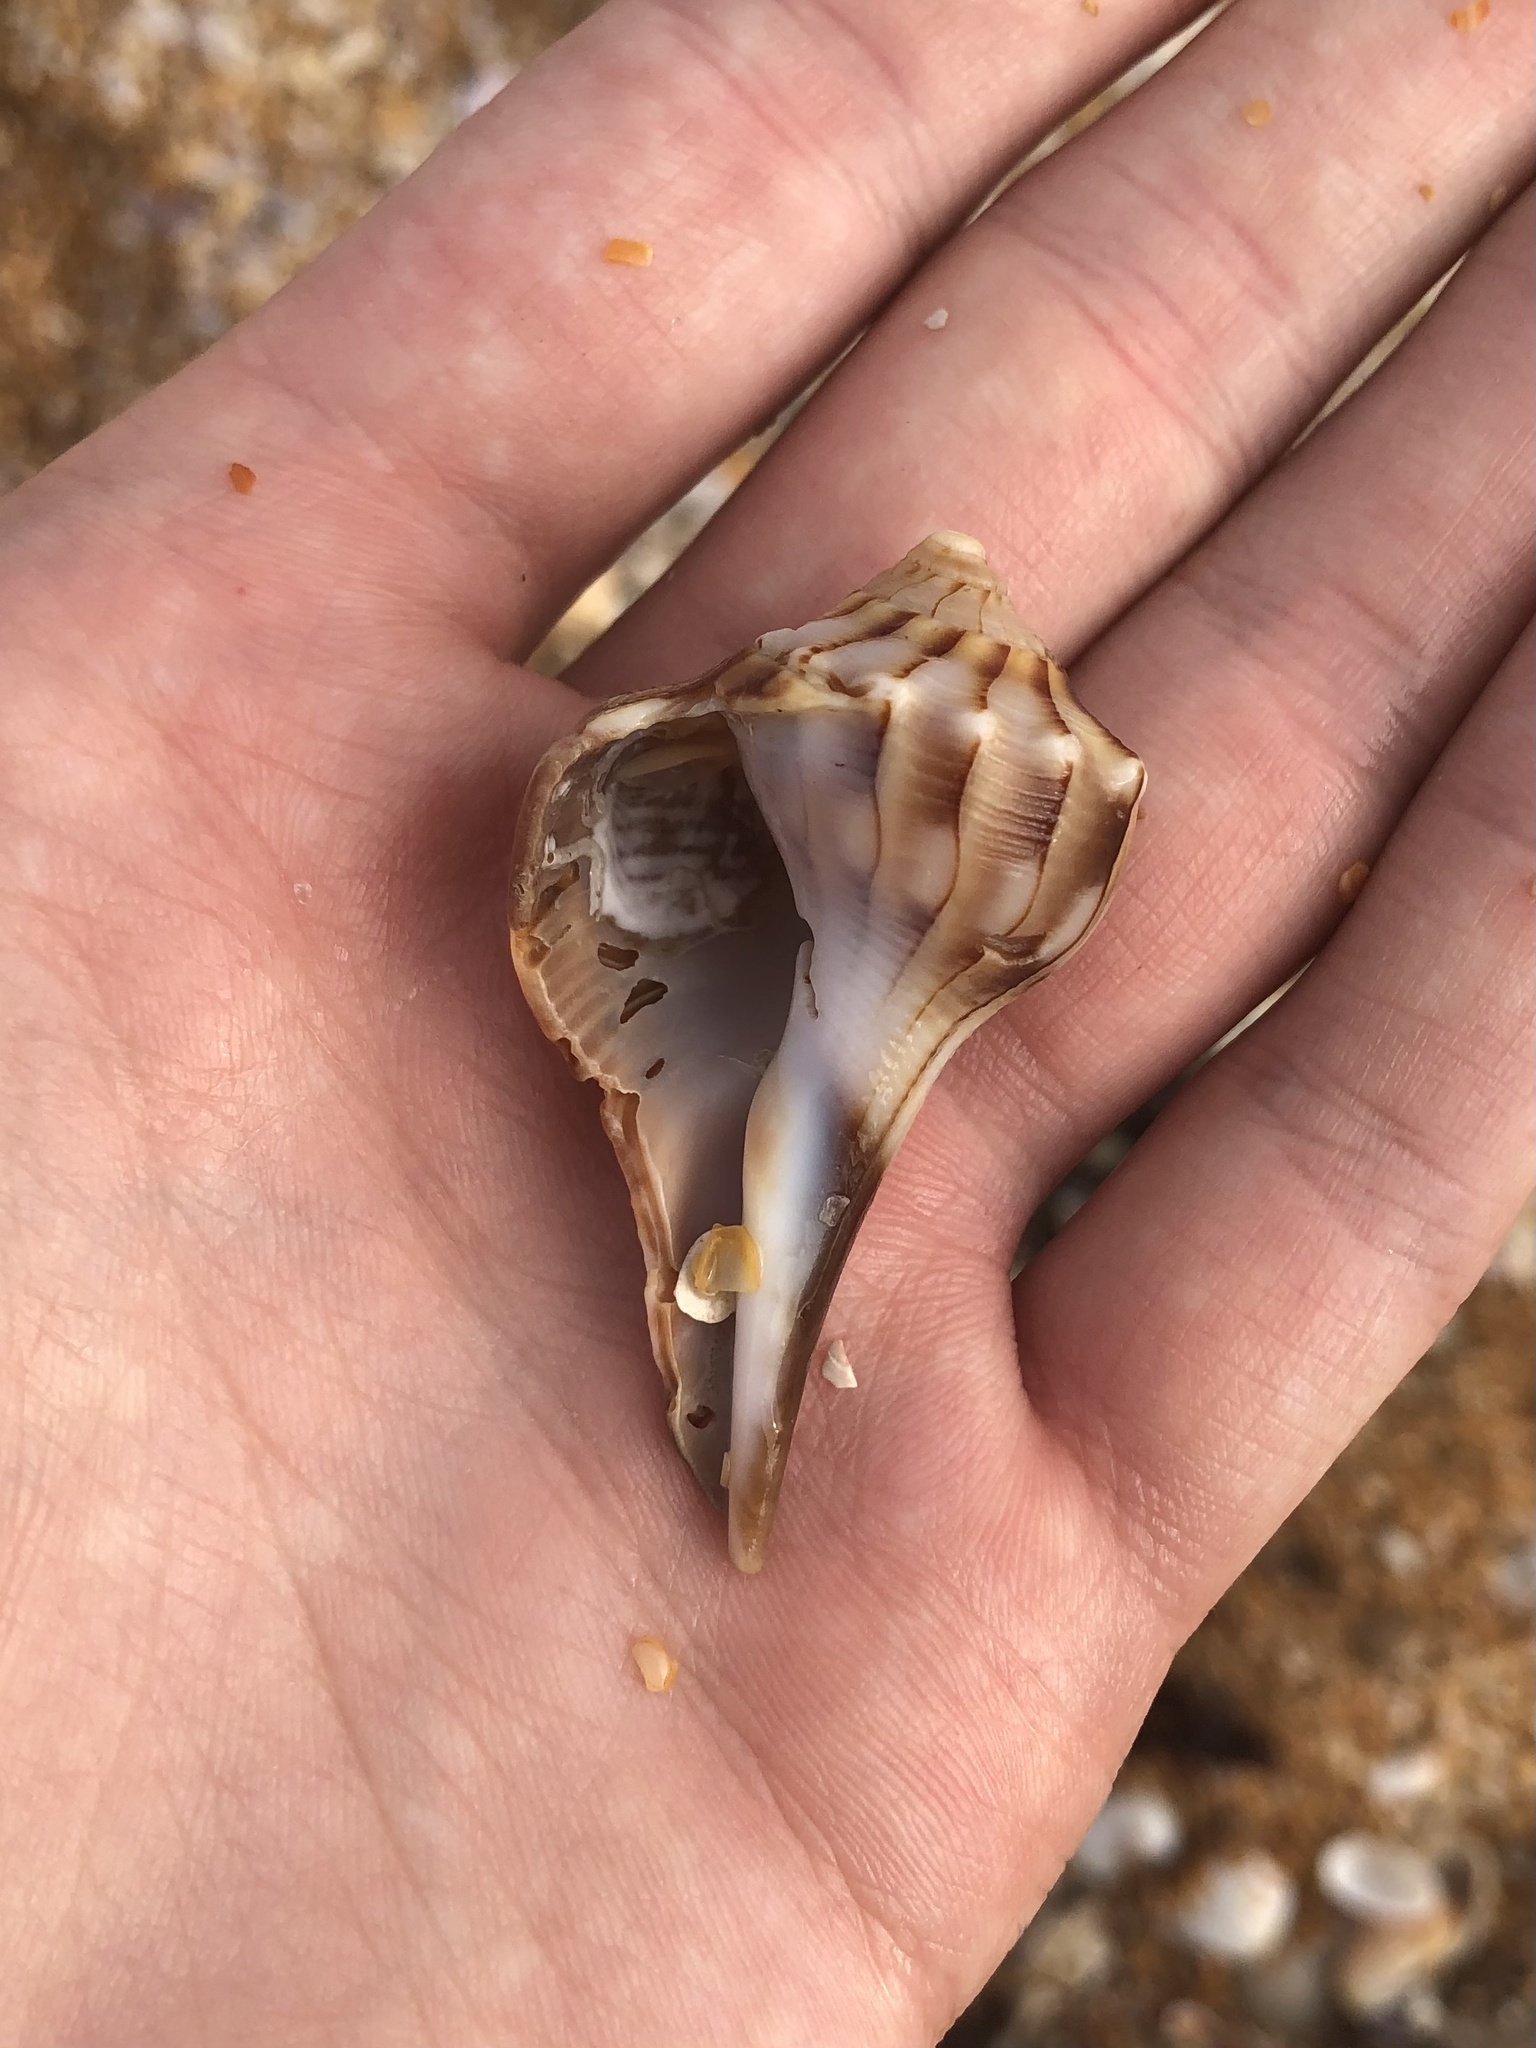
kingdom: Animalia
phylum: Mollusca
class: Gastropoda
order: Neogastropoda
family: Busyconidae
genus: Sinistrofulgur
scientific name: Sinistrofulgur sinistrum
